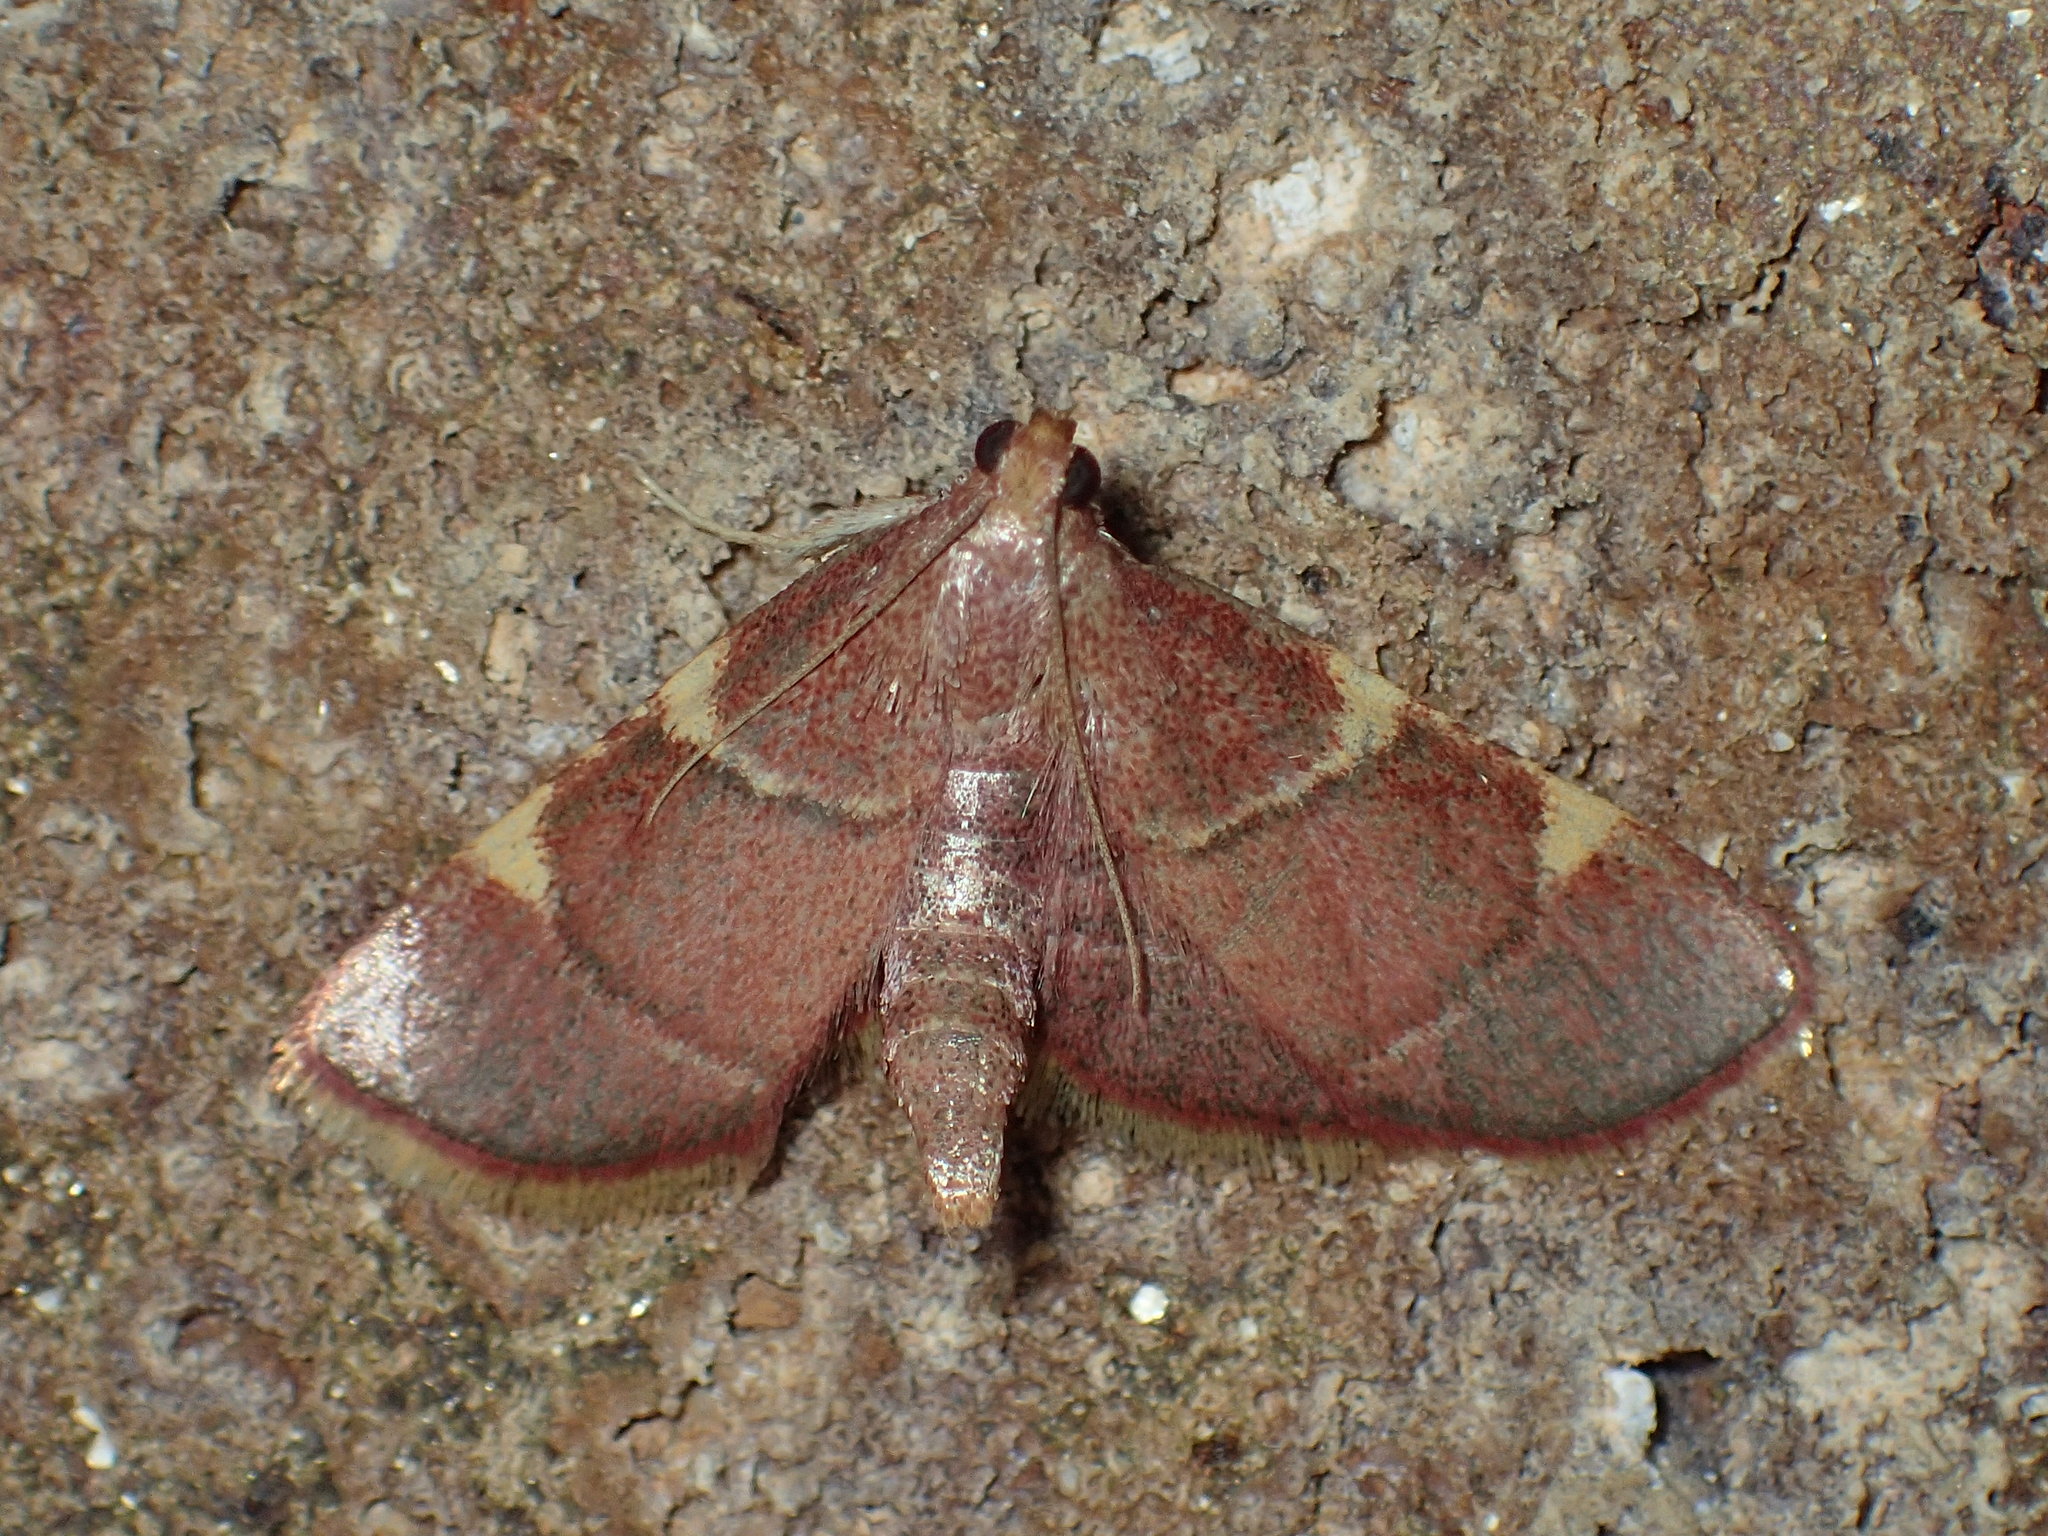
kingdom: Animalia
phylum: Arthropoda
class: Insecta
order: Lepidoptera
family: Pyralidae
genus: Hypsopygia
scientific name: Hypsopygia olinalis
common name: Yellow-fringed dolichomia moth
